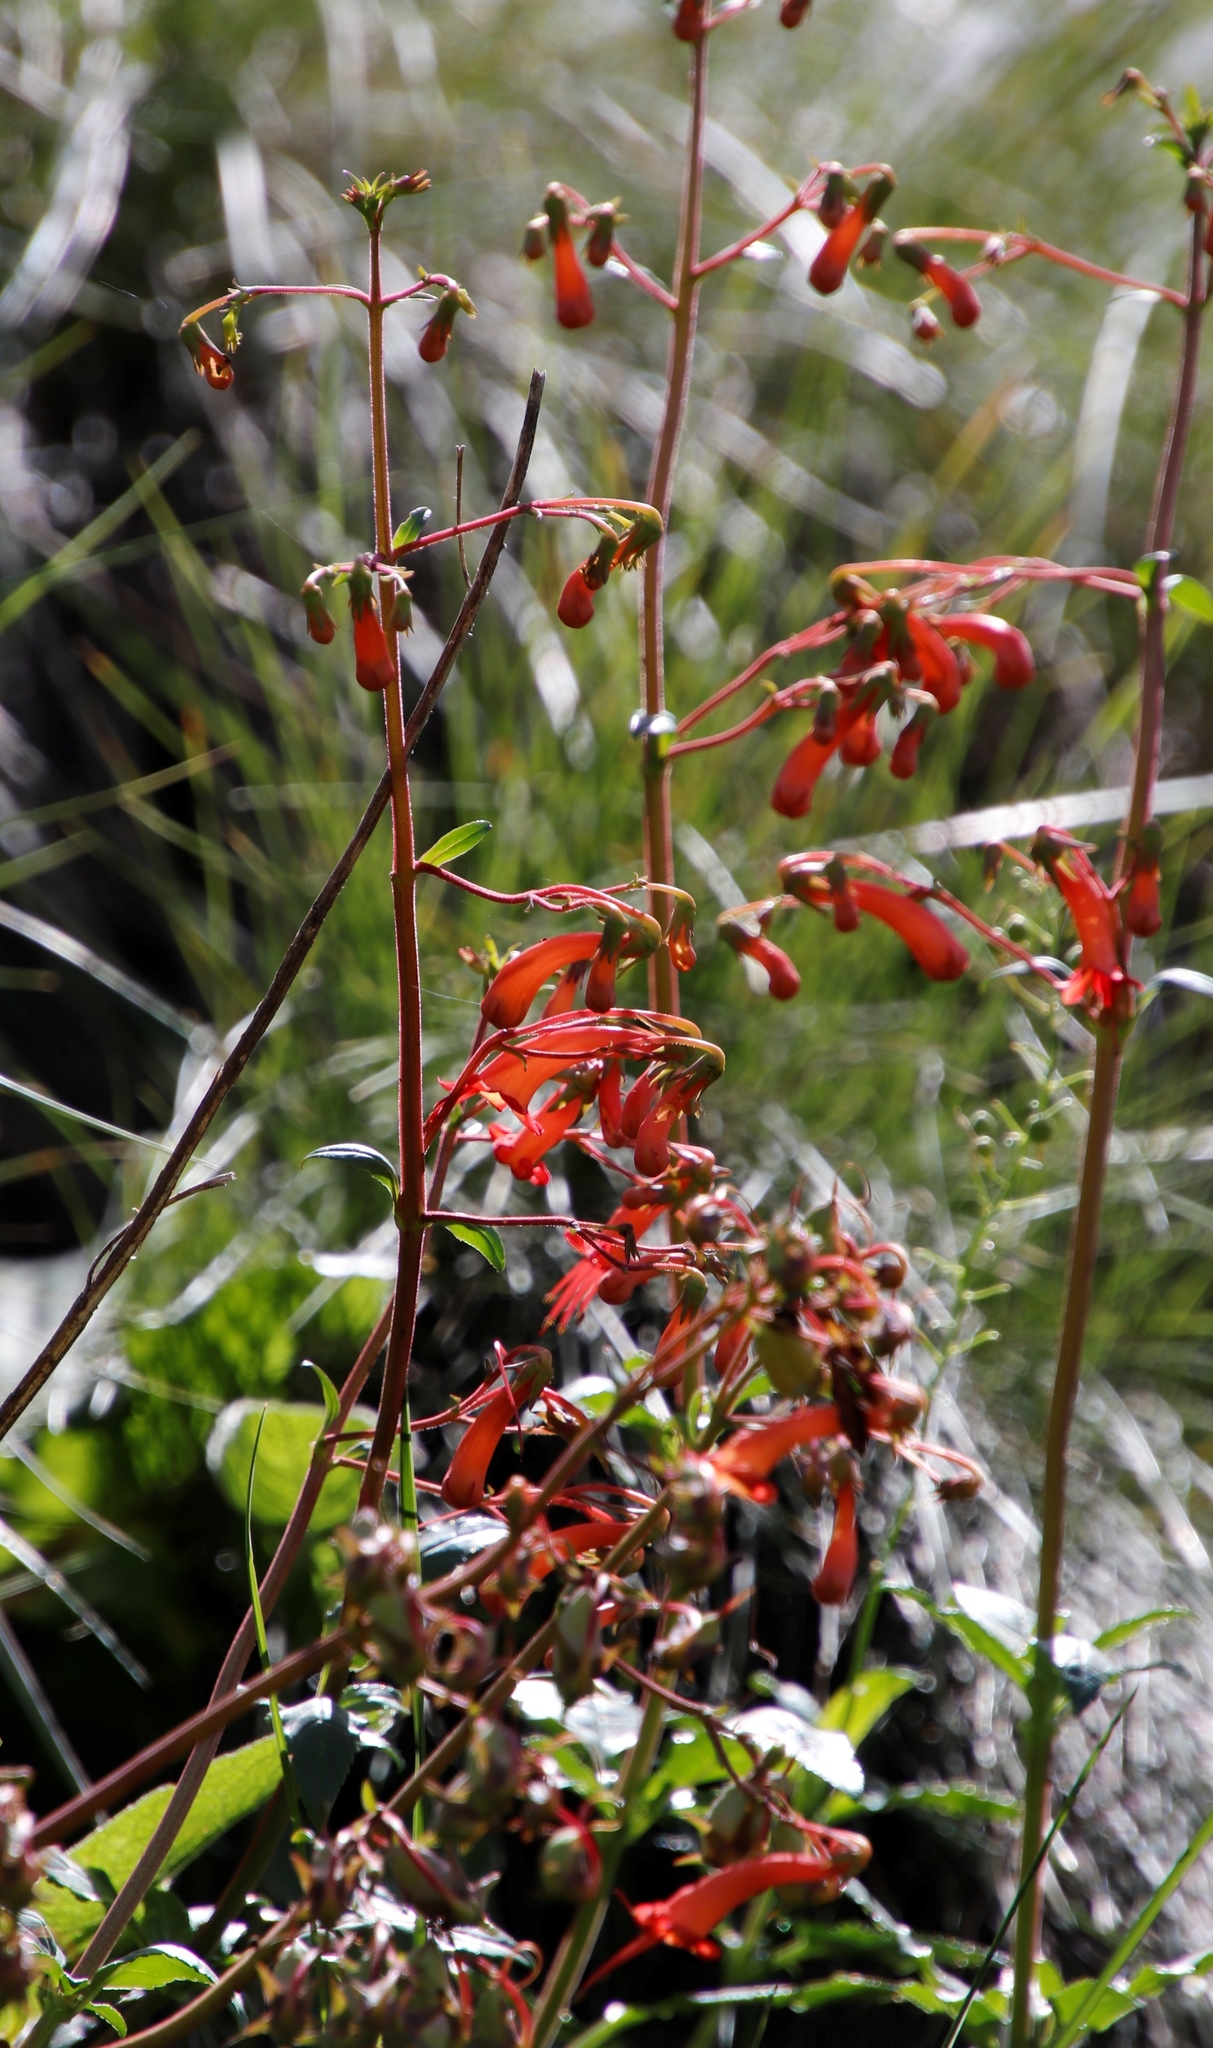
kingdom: Plantae
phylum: Tracheophyta
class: Magnoliopsida
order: Lamiales
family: Scrophulariaceae
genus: Phygelius
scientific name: Phygelius capensis
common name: Cape figwort
